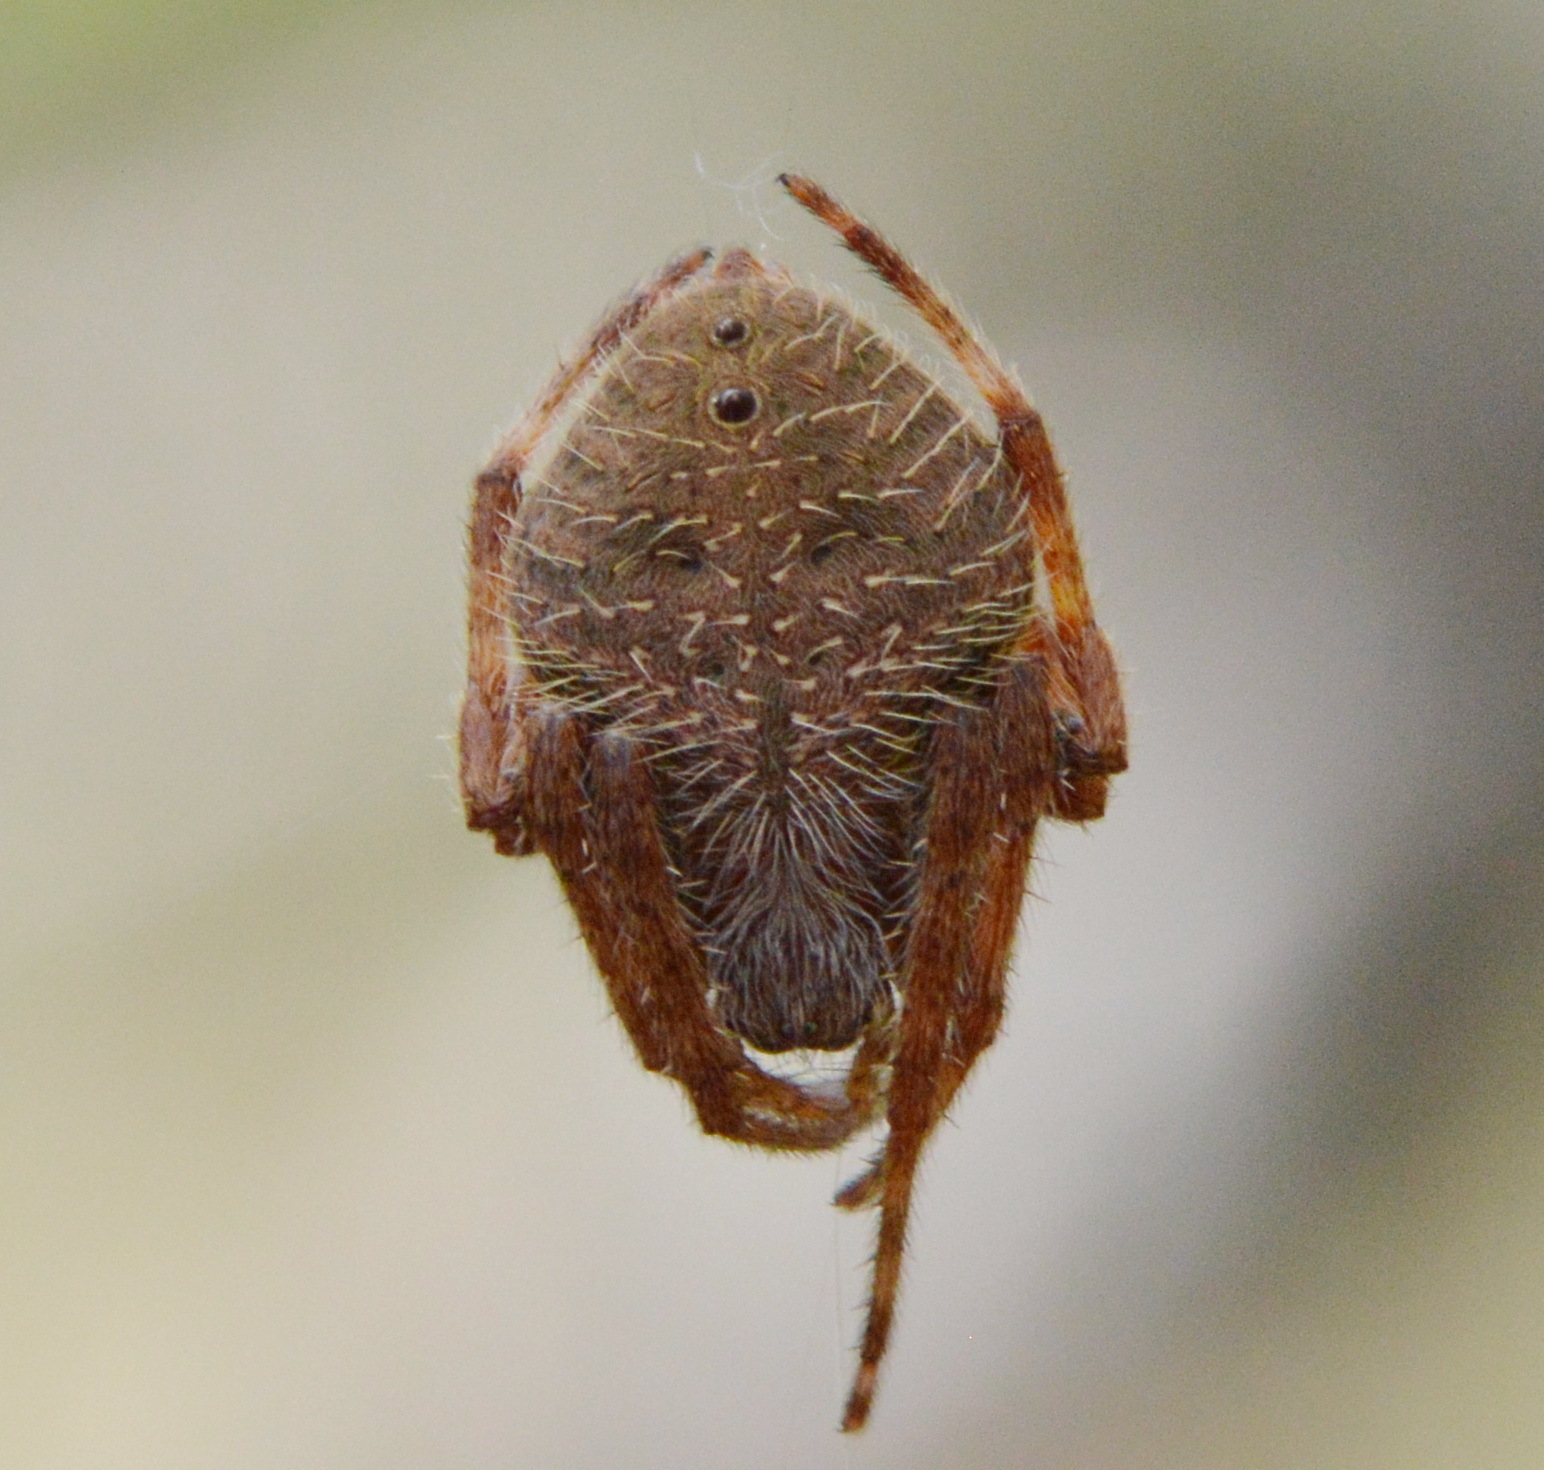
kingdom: Animalia
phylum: Arthropoda
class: Arachnida
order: Araneae
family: Araneidae
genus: Eriophora
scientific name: Eriophora ravilla
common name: Orb weavers
